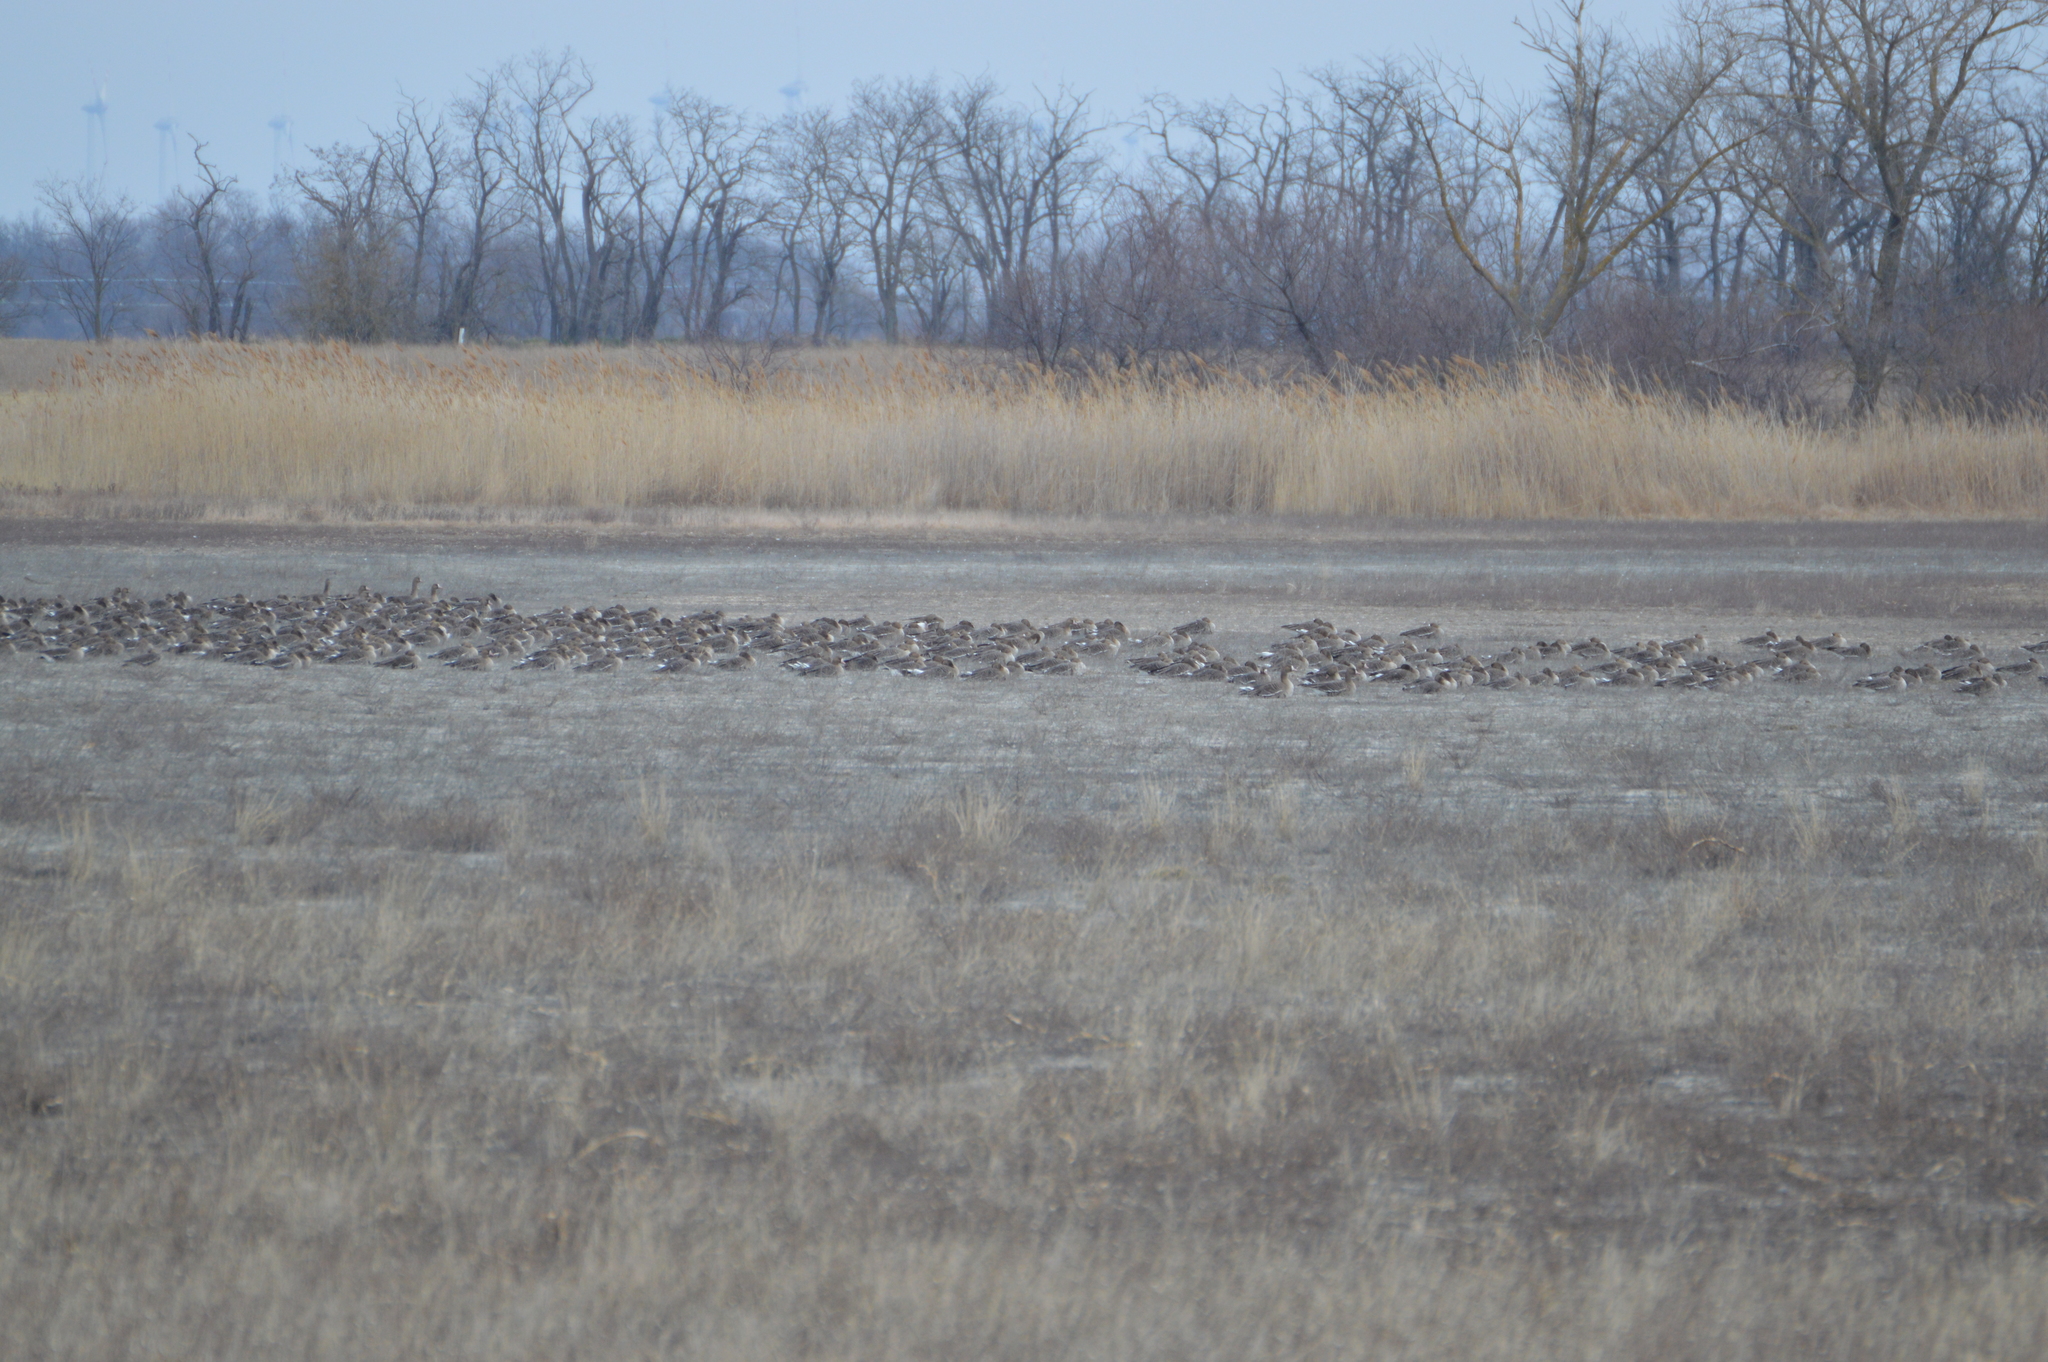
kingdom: Animalia
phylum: Chordata
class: Aves
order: Anseriformes
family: Anatidae
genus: Anser
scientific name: Anser albifrons
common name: Greater white-fronted goose
